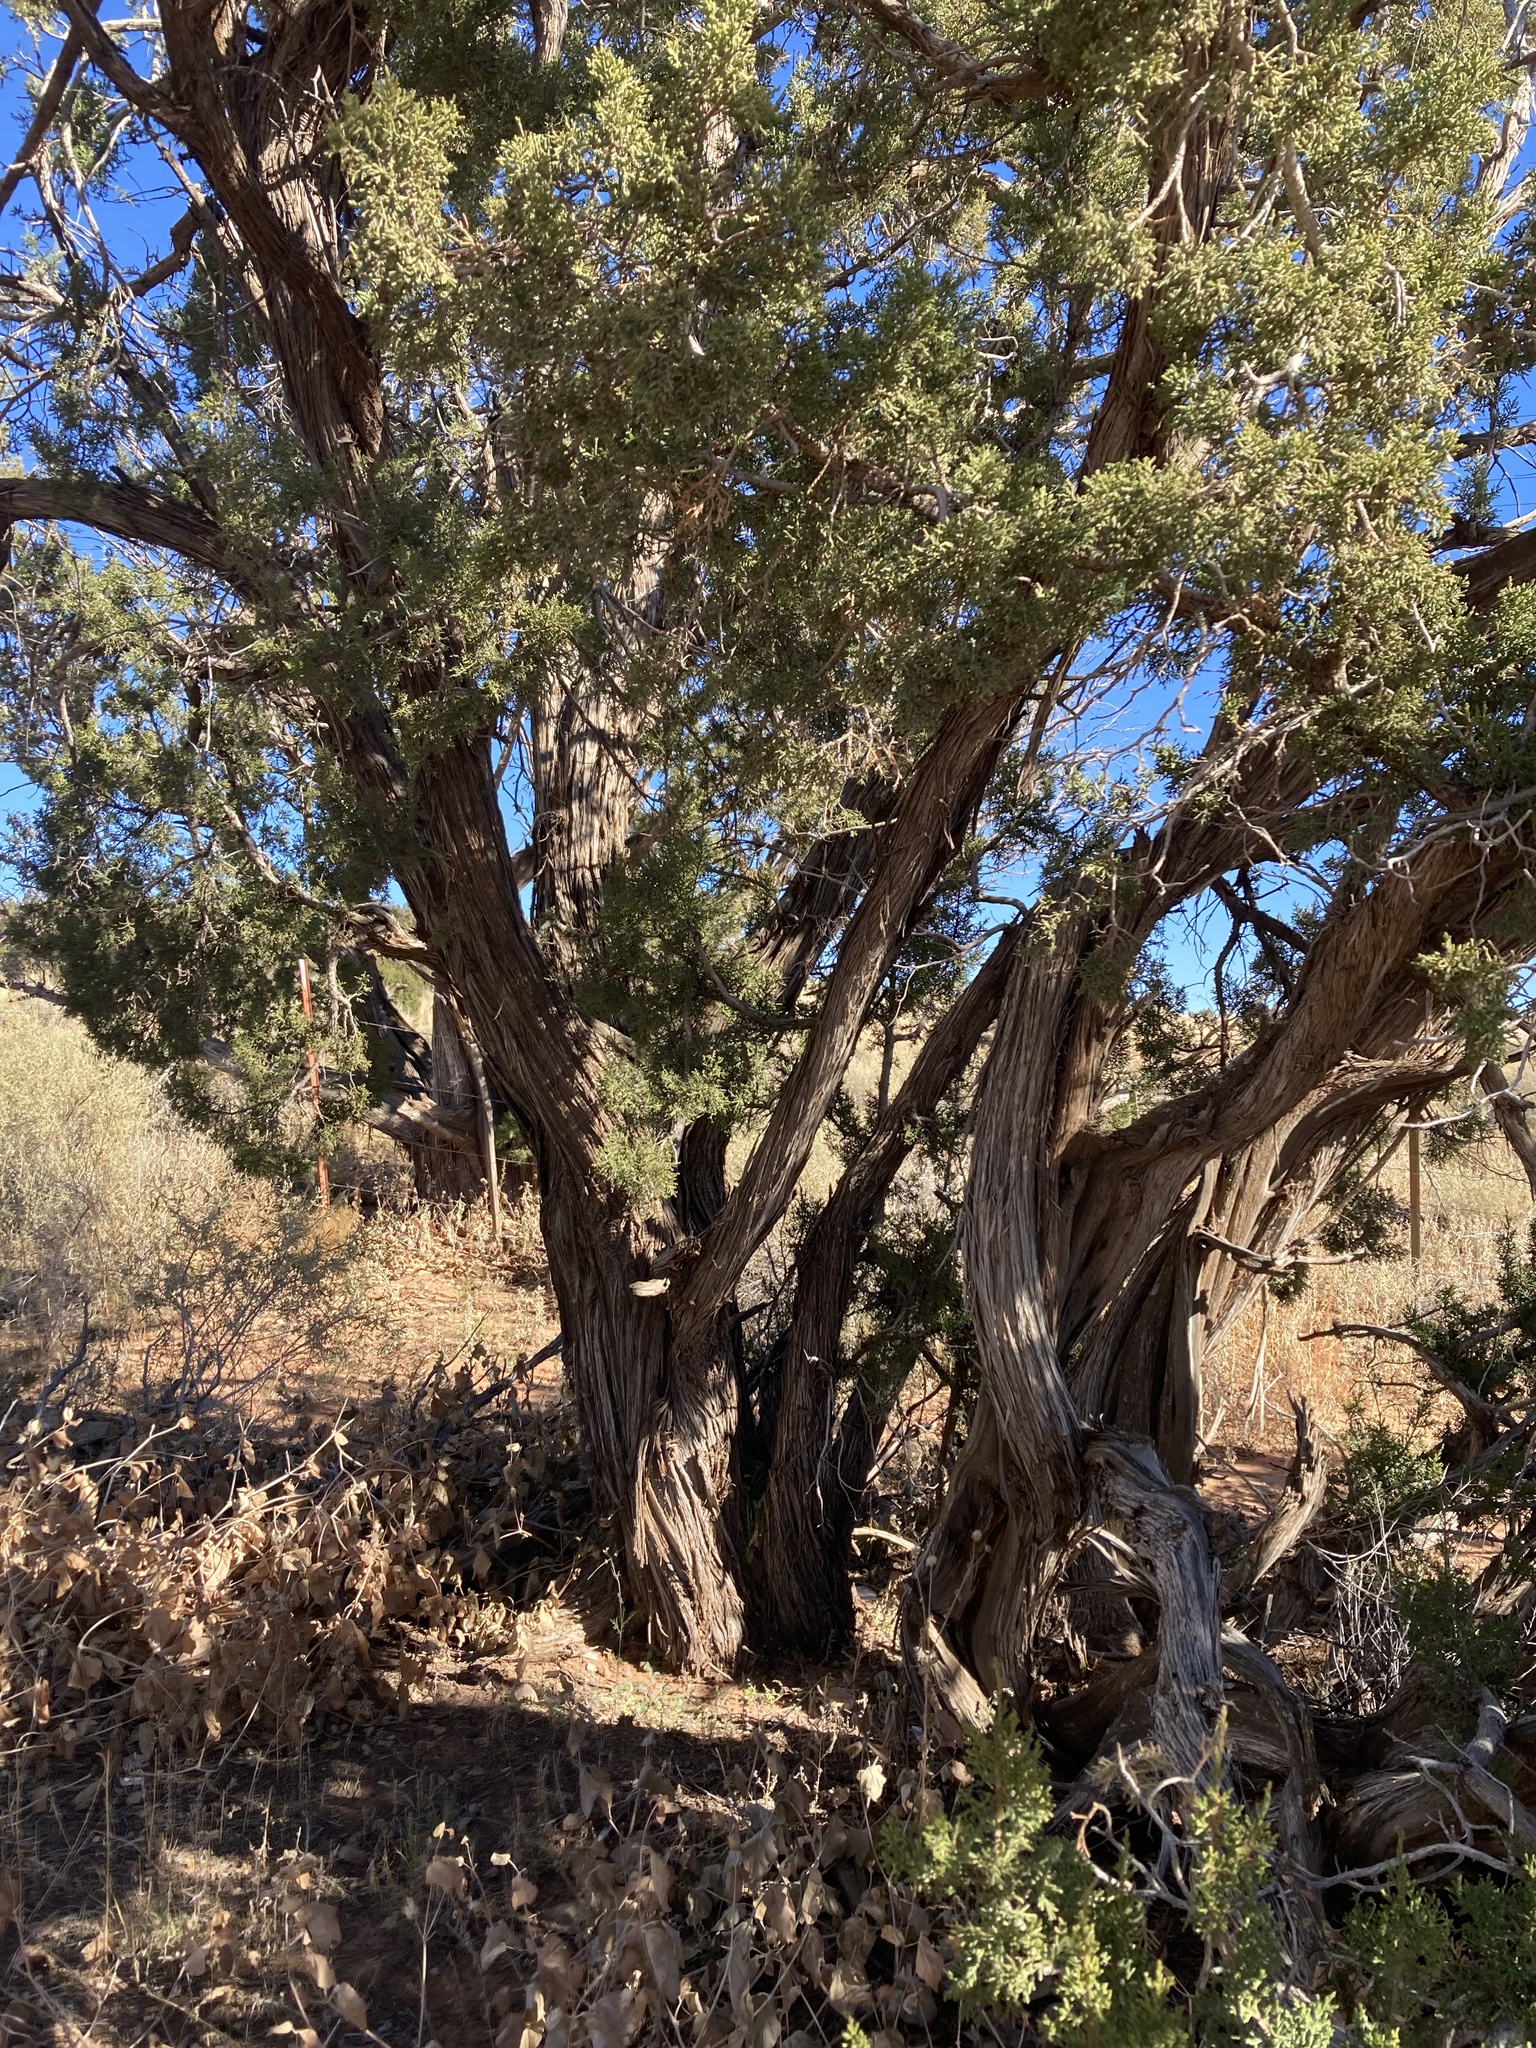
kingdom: Plantae
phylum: Tracheophyta
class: Pinopsida
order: Pinales
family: Cupressaceae
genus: Juniperus
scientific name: Juniperus monosperma
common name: One-seed juniper
